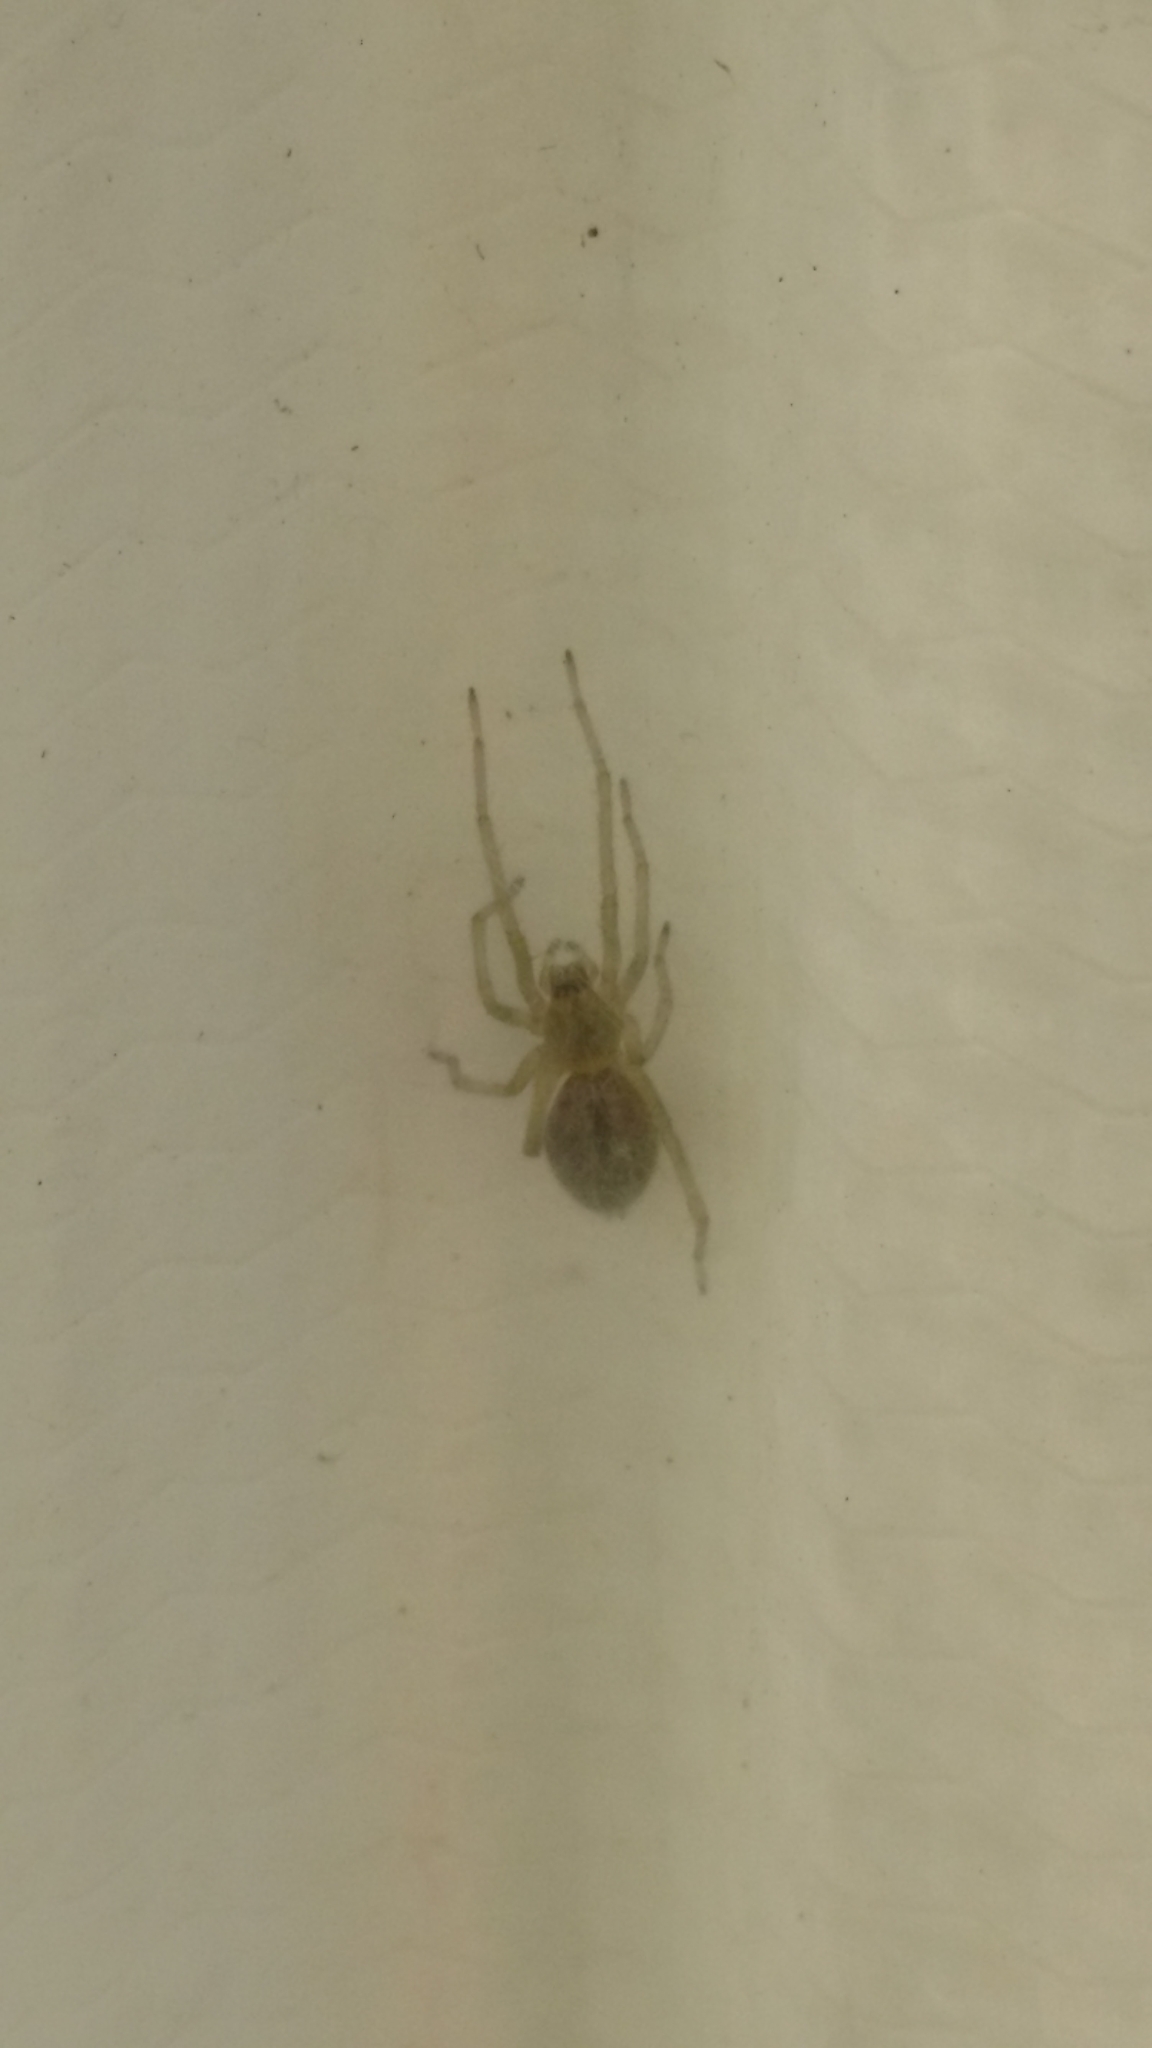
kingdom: Animalia
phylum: Arthropoda
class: Arachnida
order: Araneae
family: Cheiracanthiidae
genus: Cheiracanthium
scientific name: Cheiracanthium mildei
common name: Northern yellow sac spider
